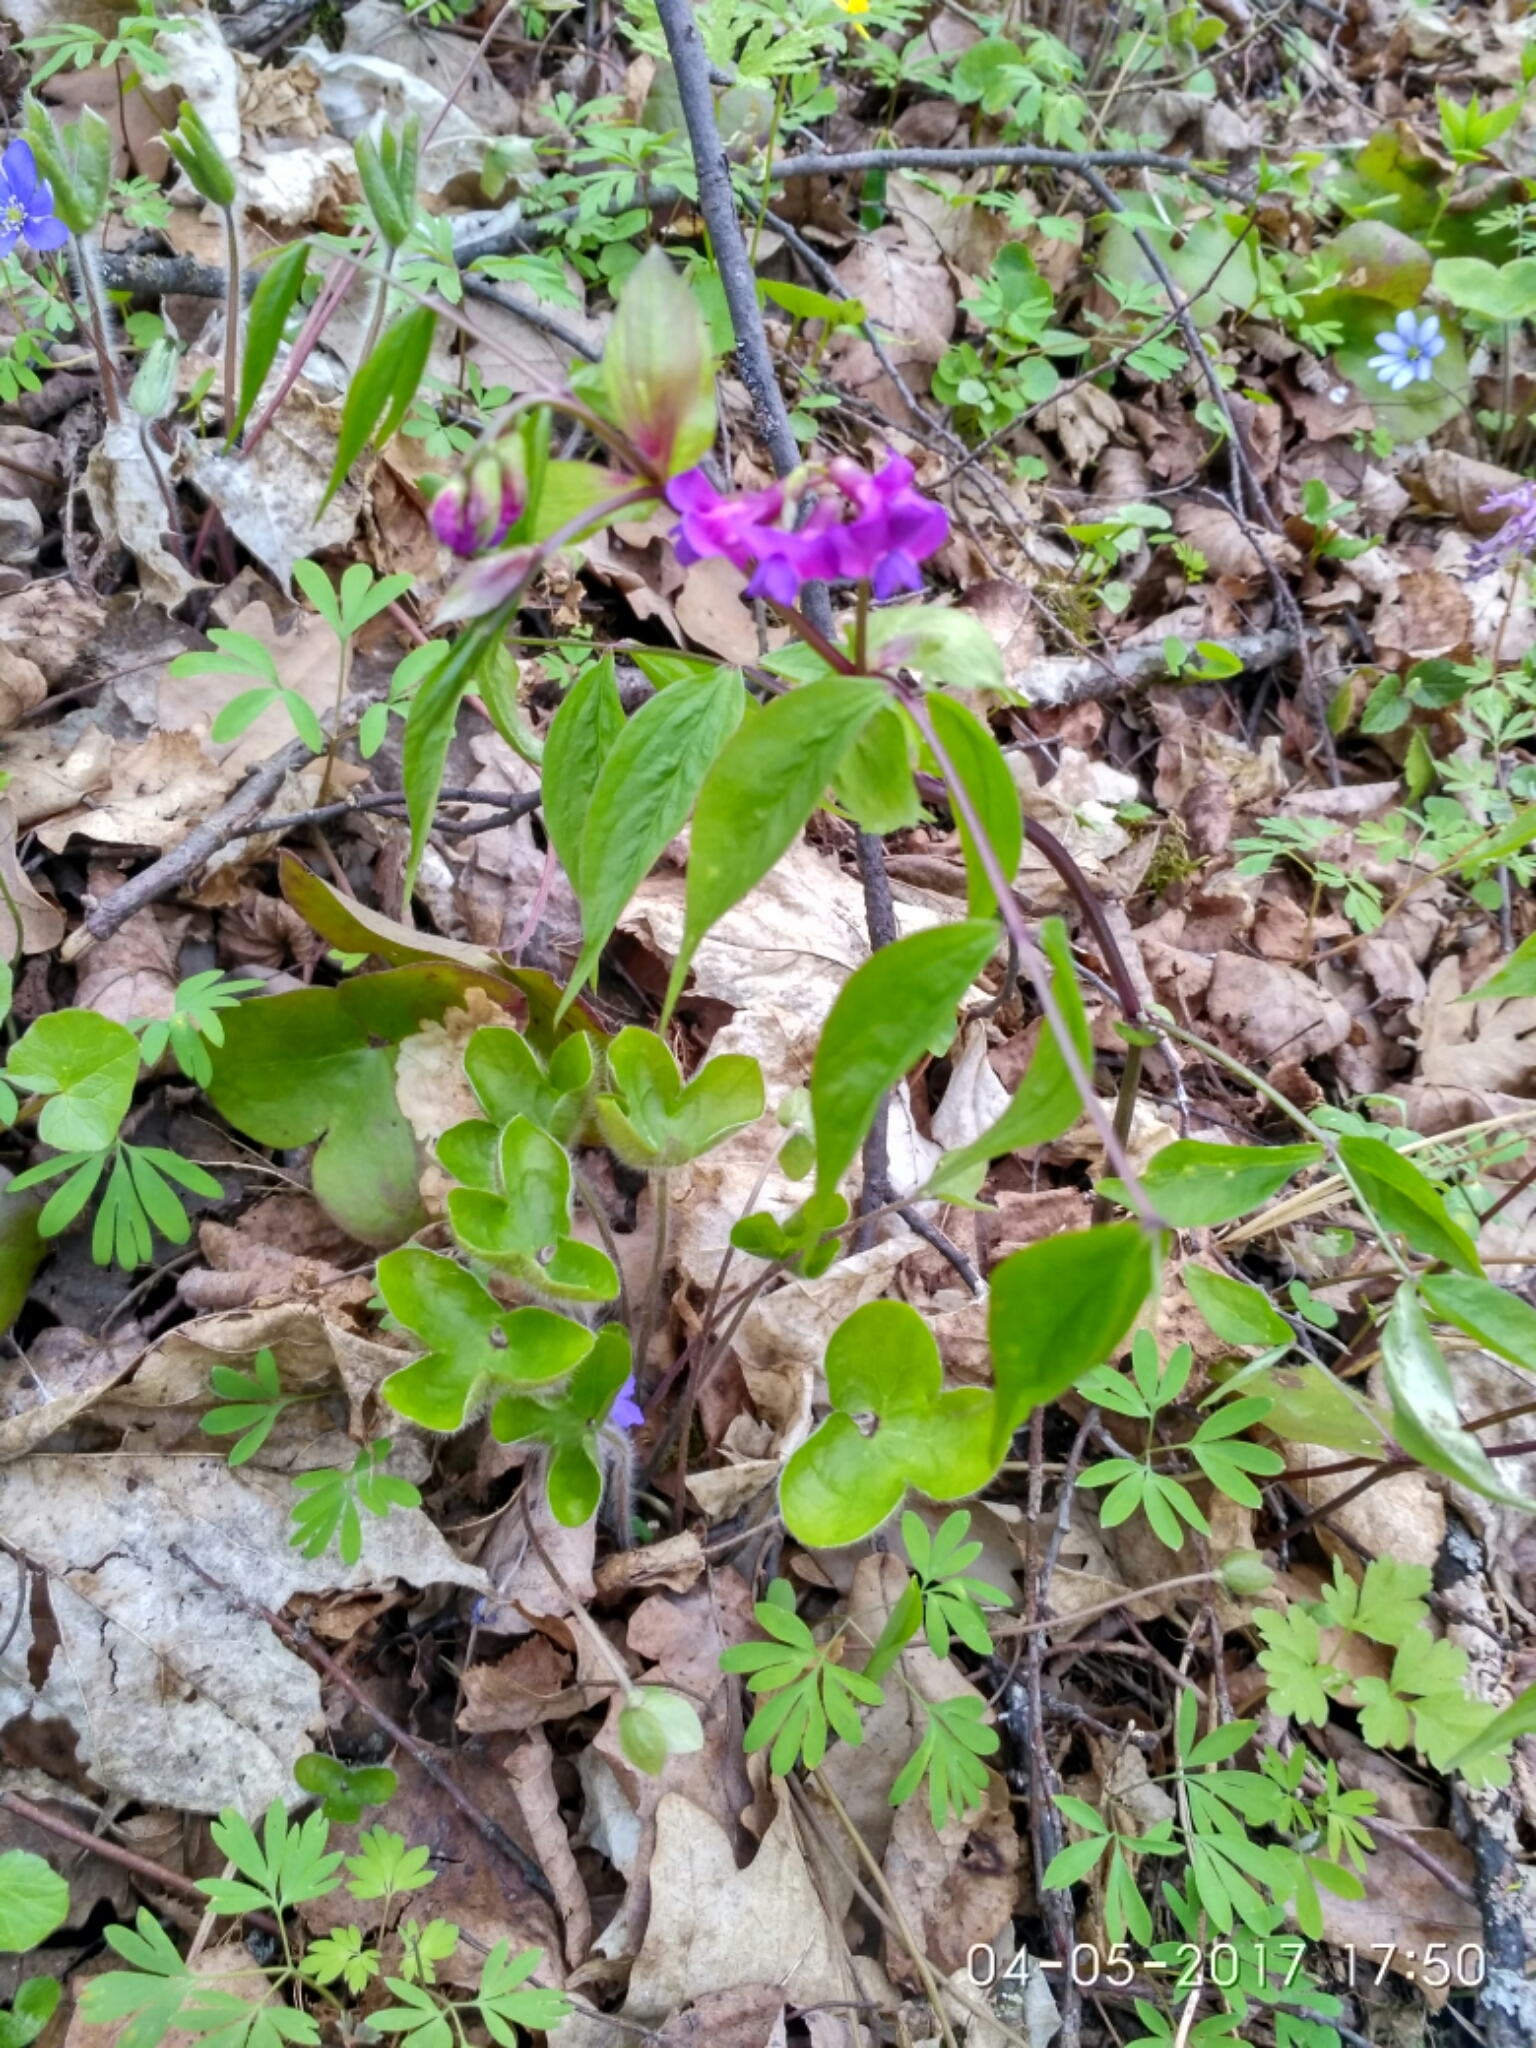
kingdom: Plantae
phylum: Tracheophyta
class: Magnoliopsida
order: Fabales
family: Fabaceae
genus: Lathyrus
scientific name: Lathyrus vernus
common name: Spring pea
